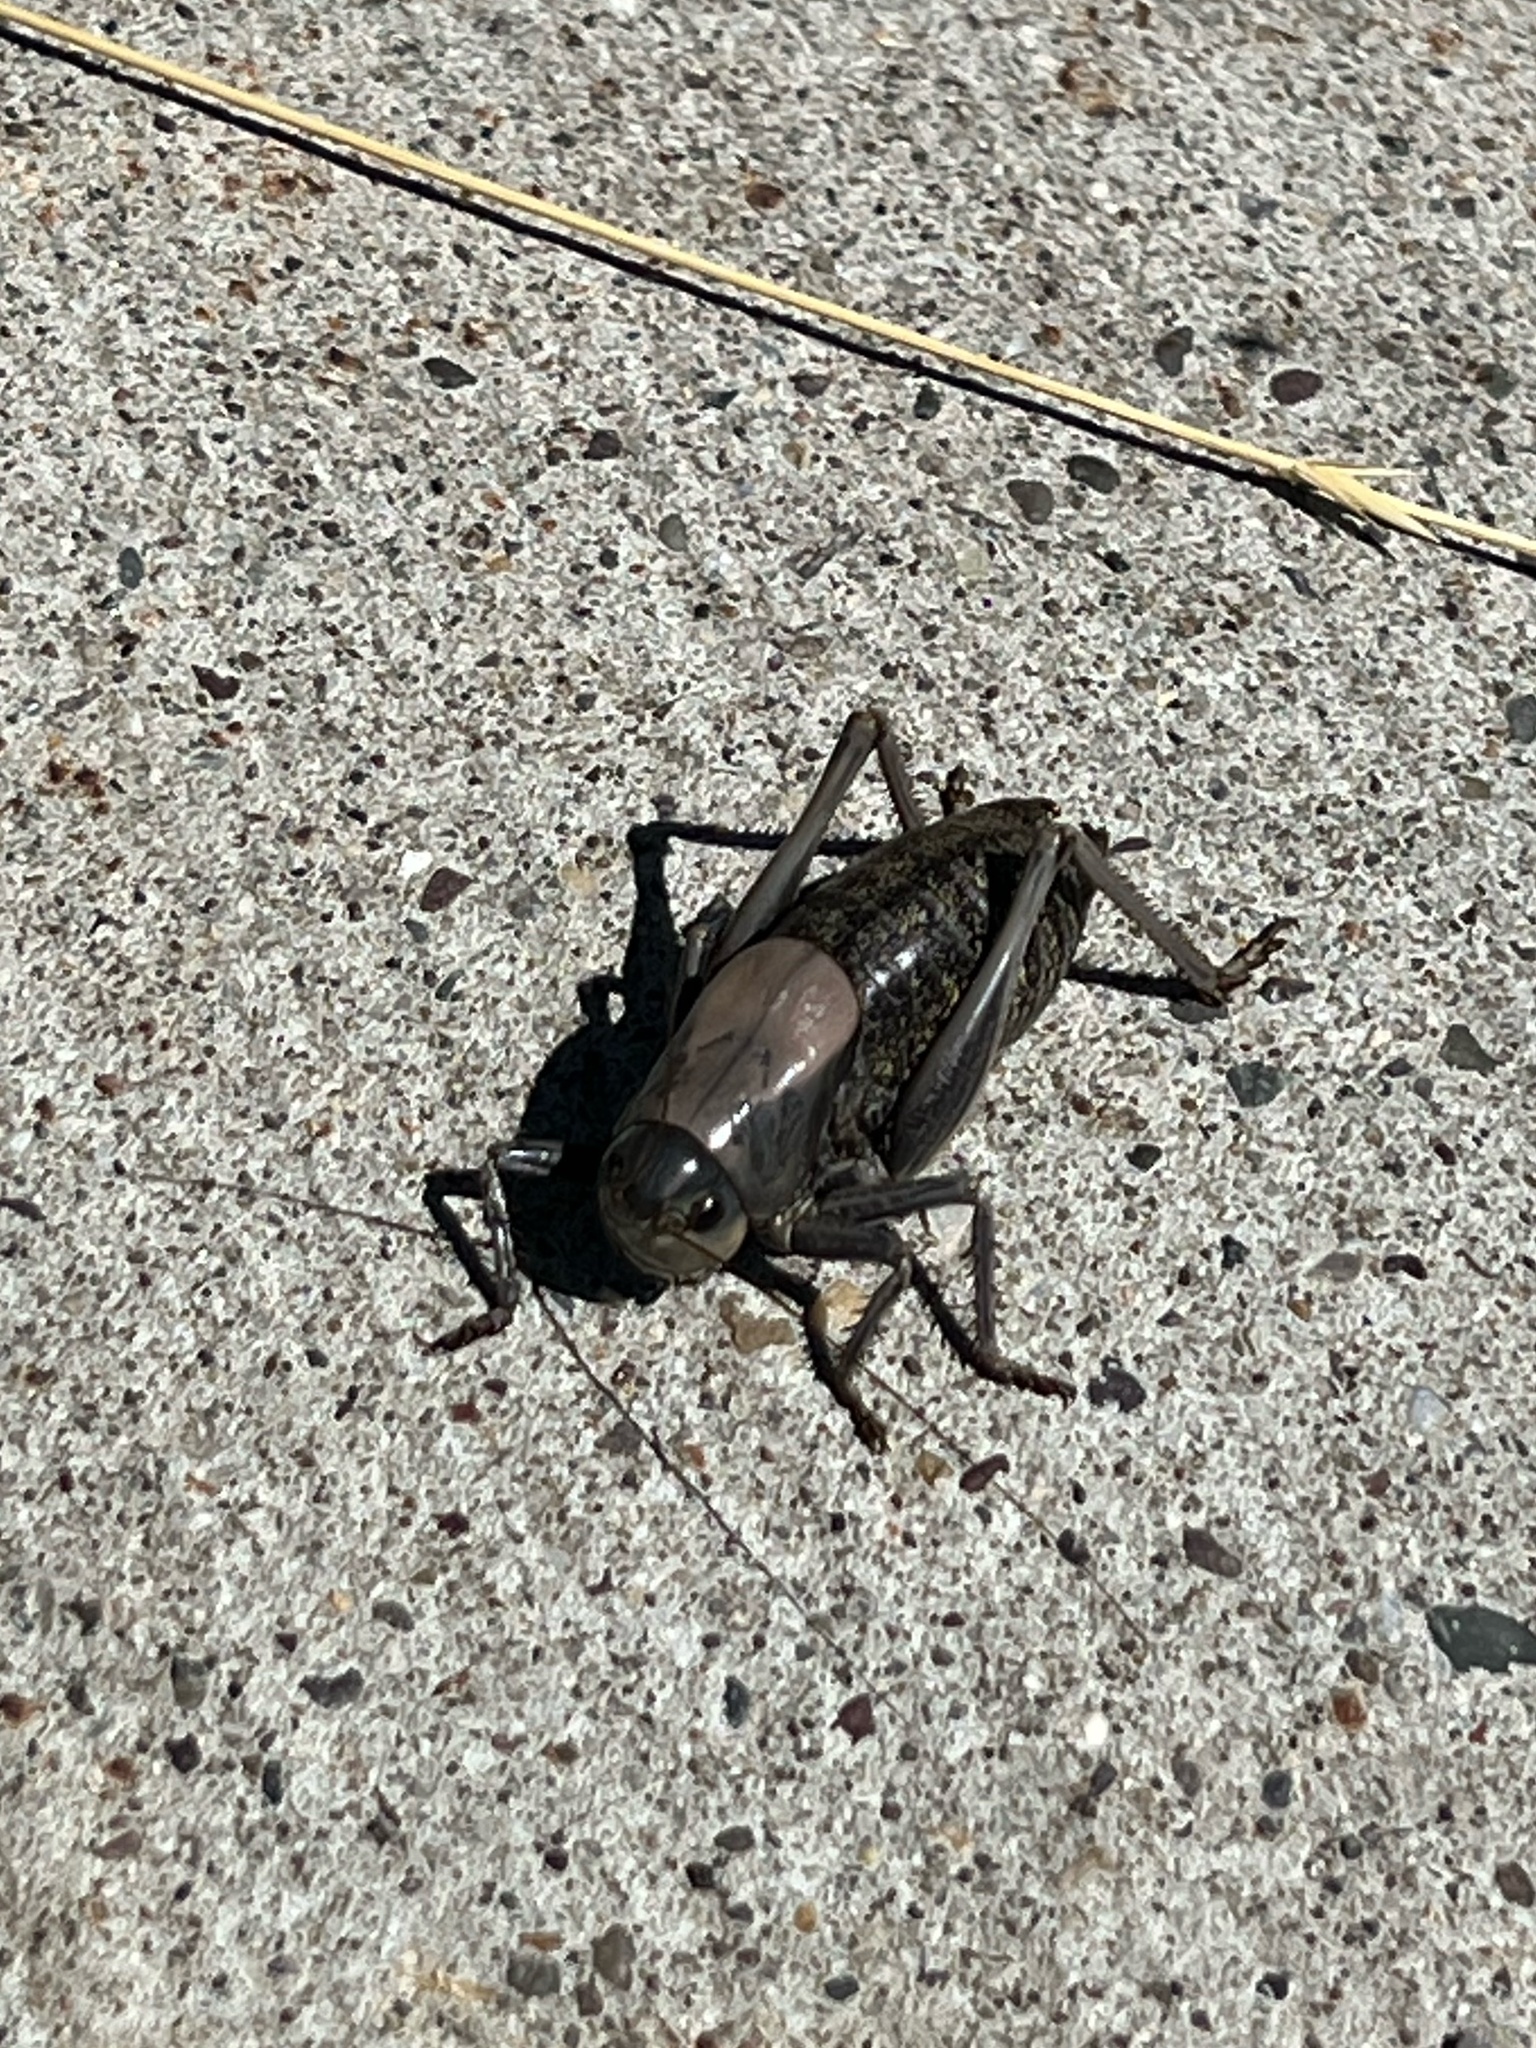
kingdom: Animalia
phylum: Arthropoda
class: Insecta
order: Orthoptera
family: Tettigoniidae
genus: Anabrus
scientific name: Anabrus simplex
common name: Mormon cricket
